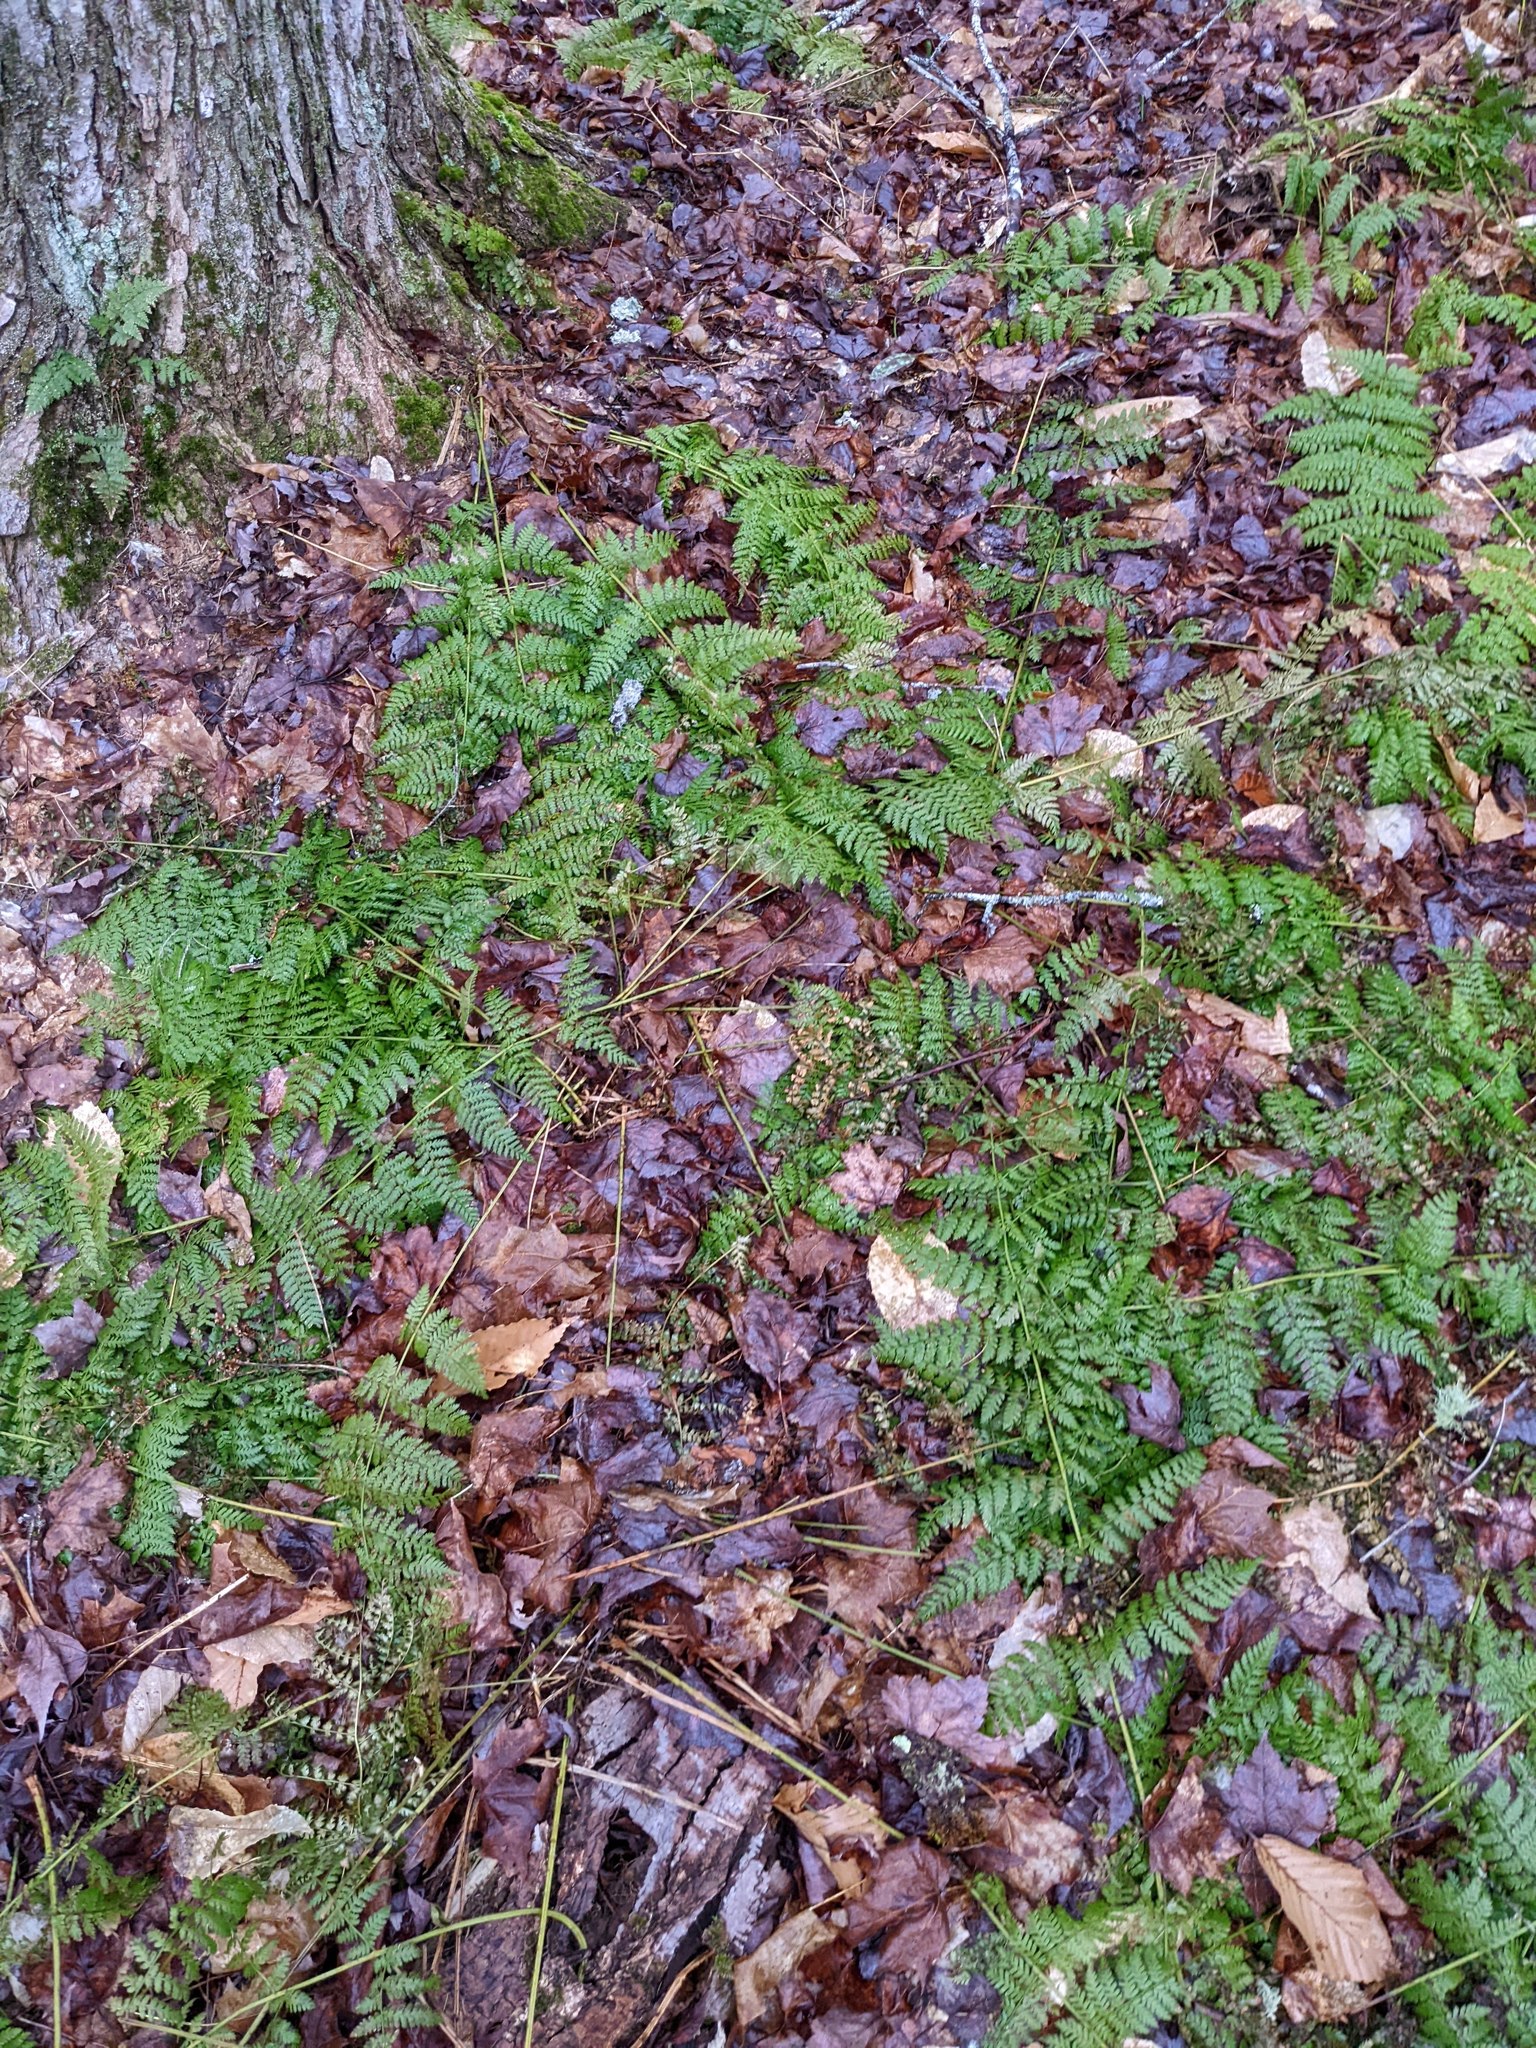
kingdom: Plantae
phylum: Tracheophyta
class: Polypodiopsida
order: Polypodiales
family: Dryopteridaceae
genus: Dryopteris
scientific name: Dryopteris intermedia
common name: Evergreen wood fern
